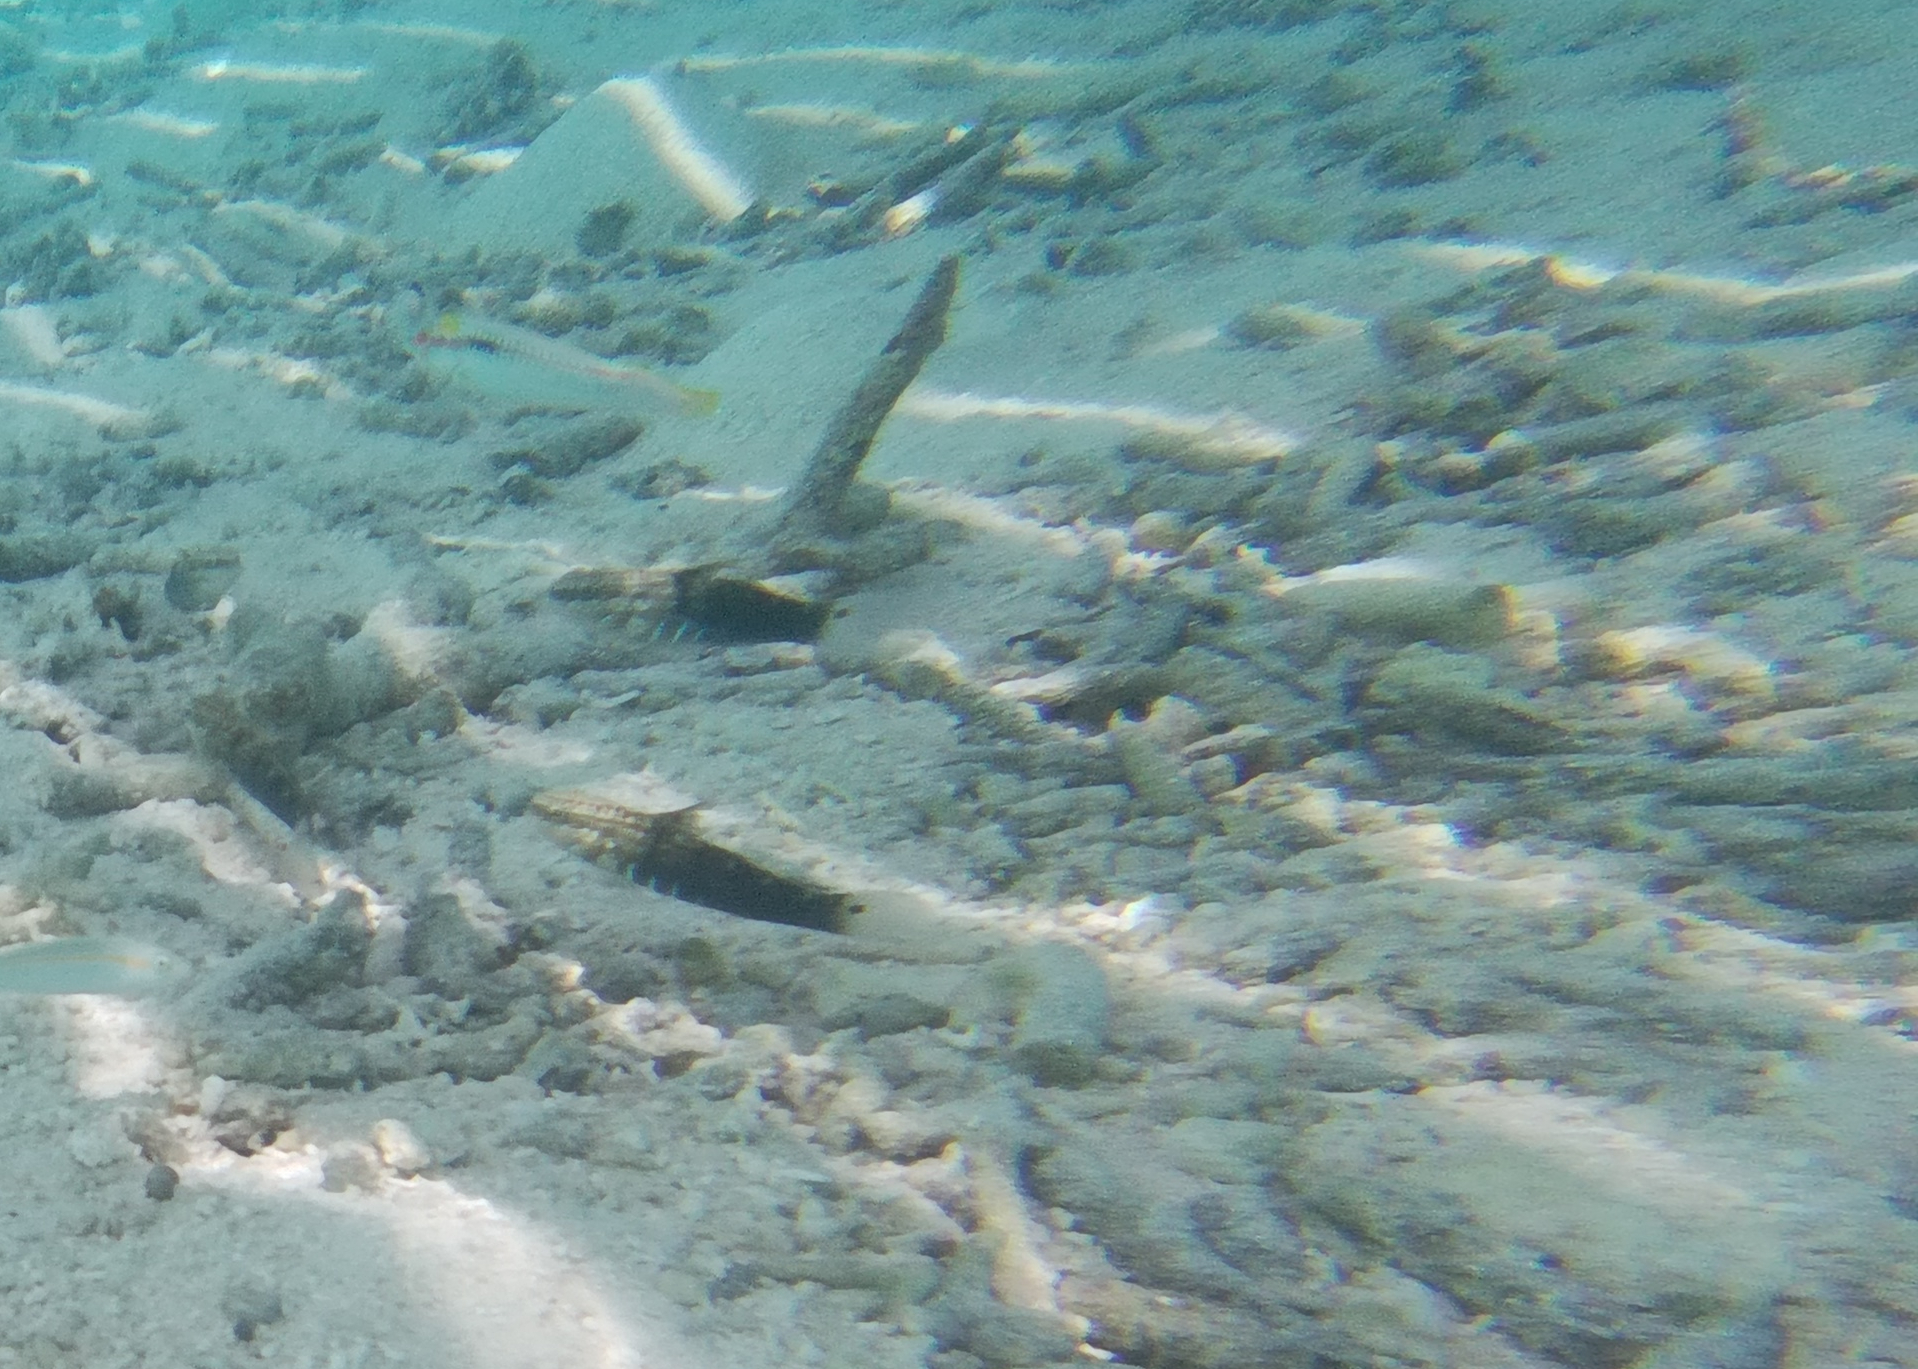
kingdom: Animalia
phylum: Chordata
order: Perciformes
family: Gobiidae
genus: Amblygobius
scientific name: Amblygobius semicinctus
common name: Halfbarred goby
